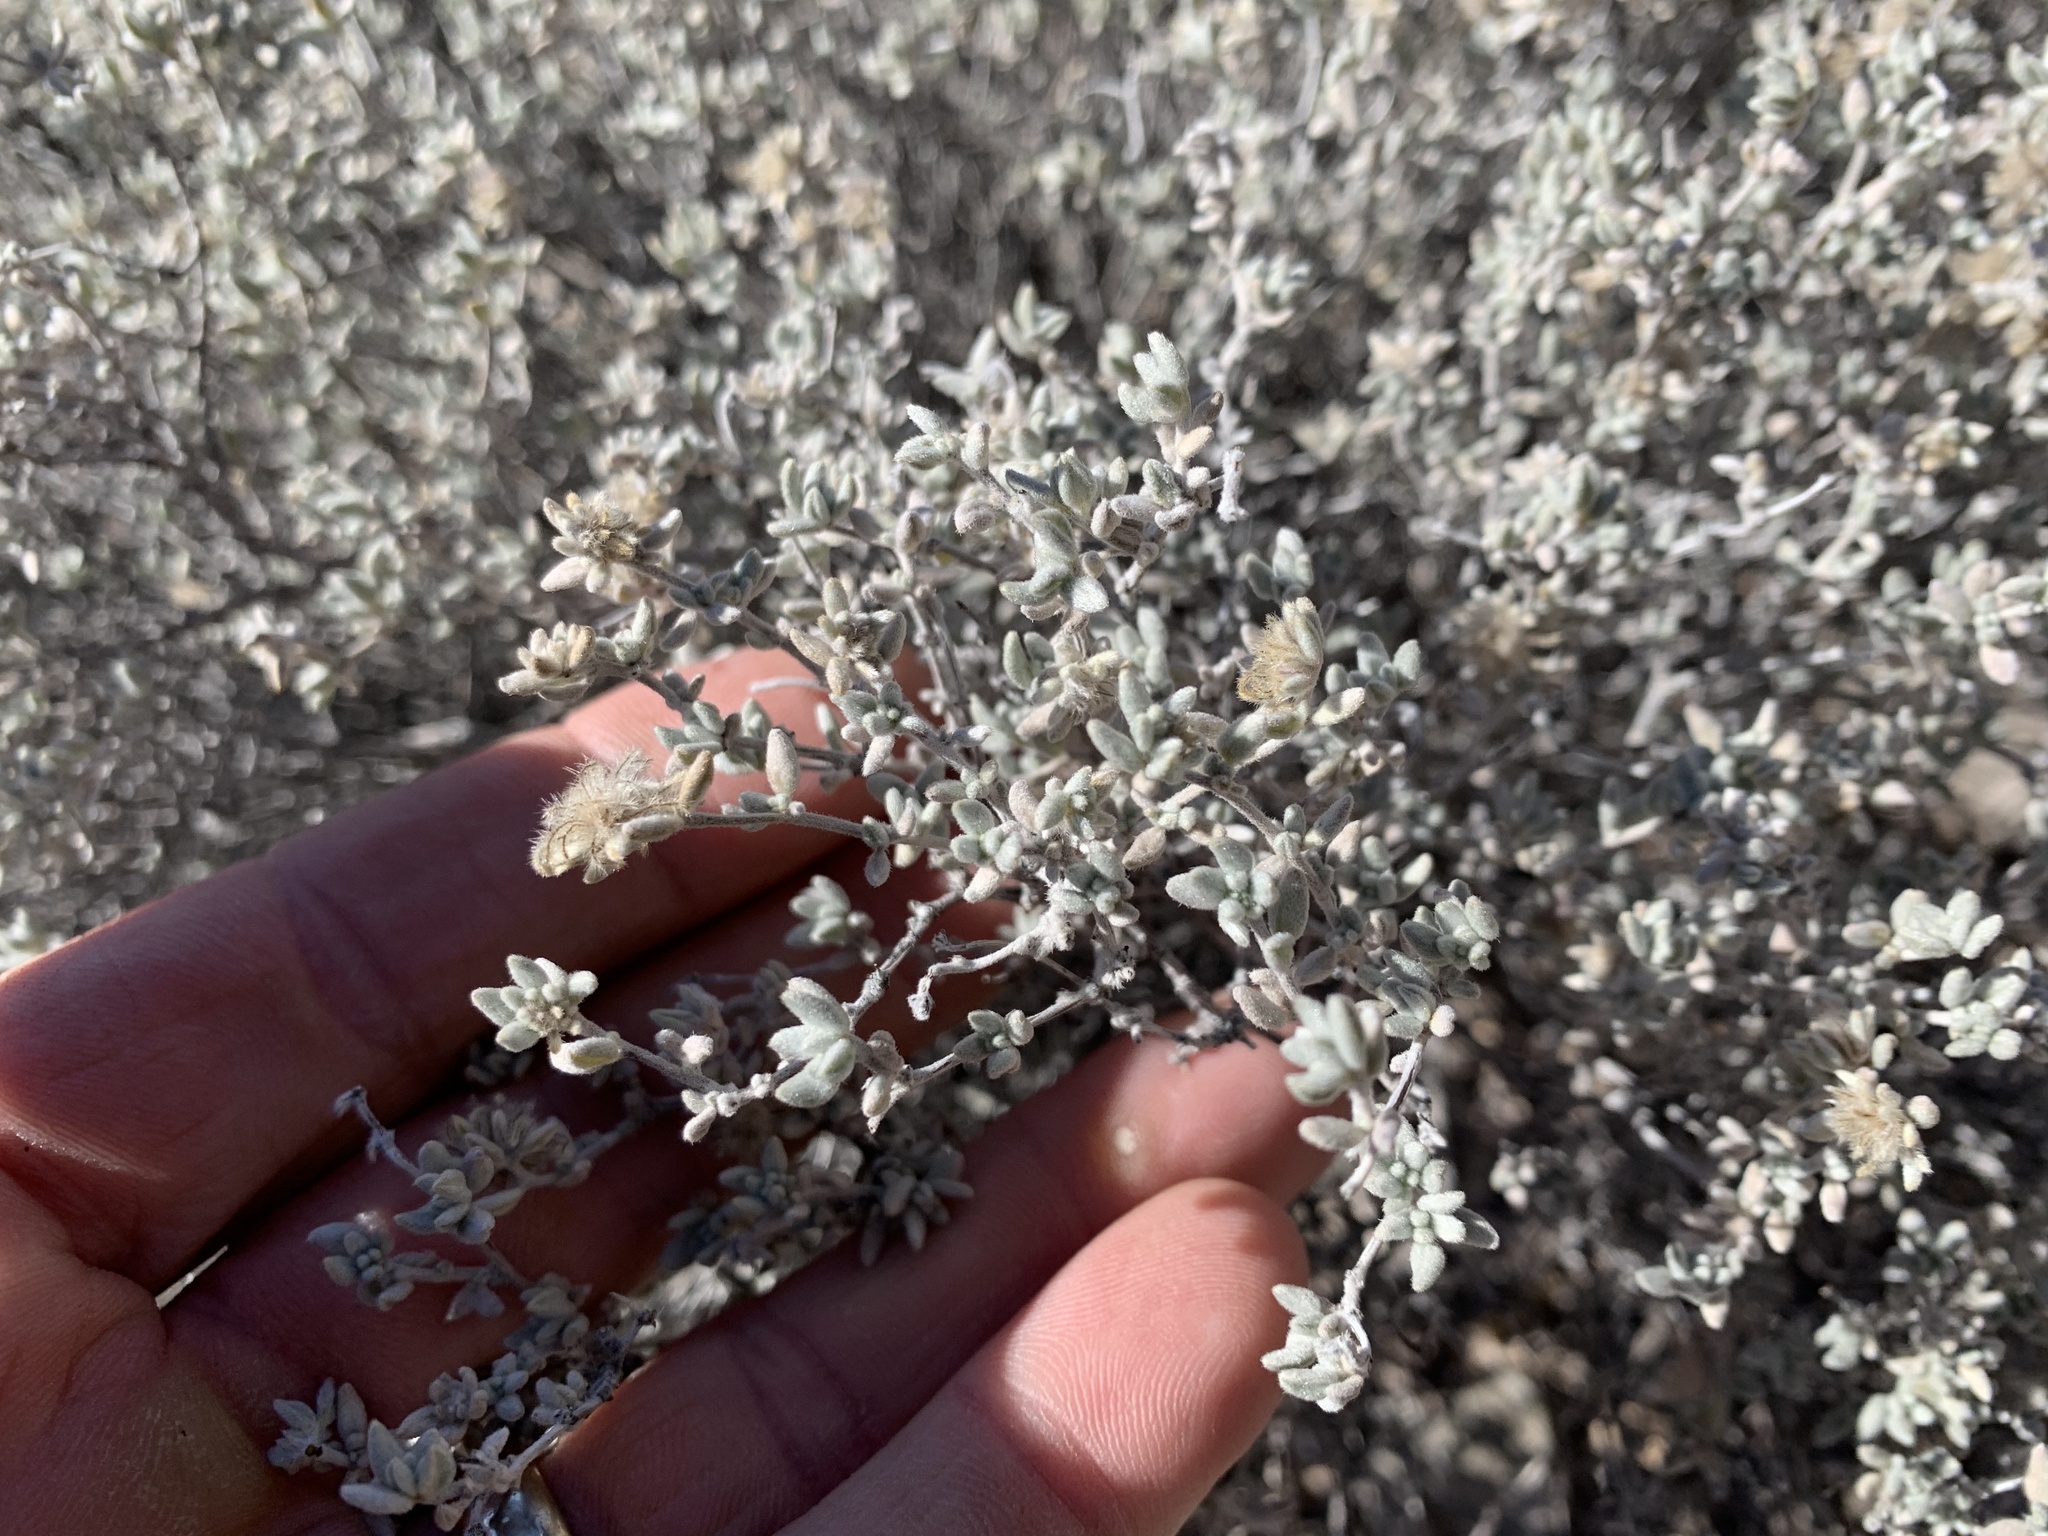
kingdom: Plantae
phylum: Tracheophyta
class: Magnoliopsida
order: Boraginales
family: Ehretiaceae
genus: Tiquilia
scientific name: Tiquilia canescens
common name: Hairy tiquilia
